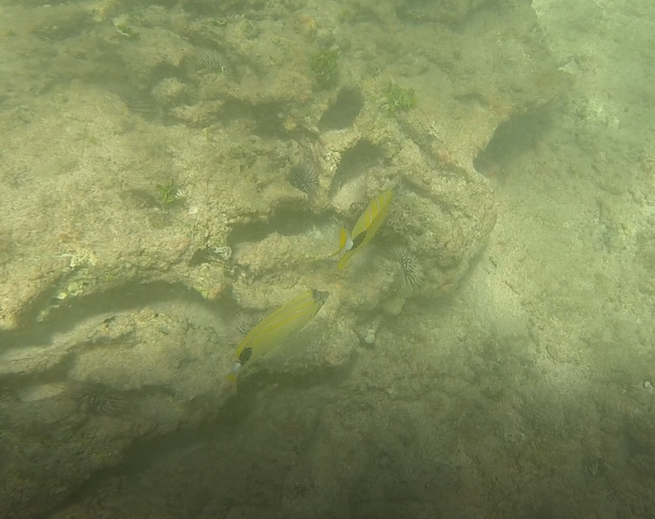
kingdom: Animalia
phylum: Chordata
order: Perciformes
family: Chaetodontidae
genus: Chaetodon
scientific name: Chaetodon fremblii
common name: Bluestriped butterflyfish
